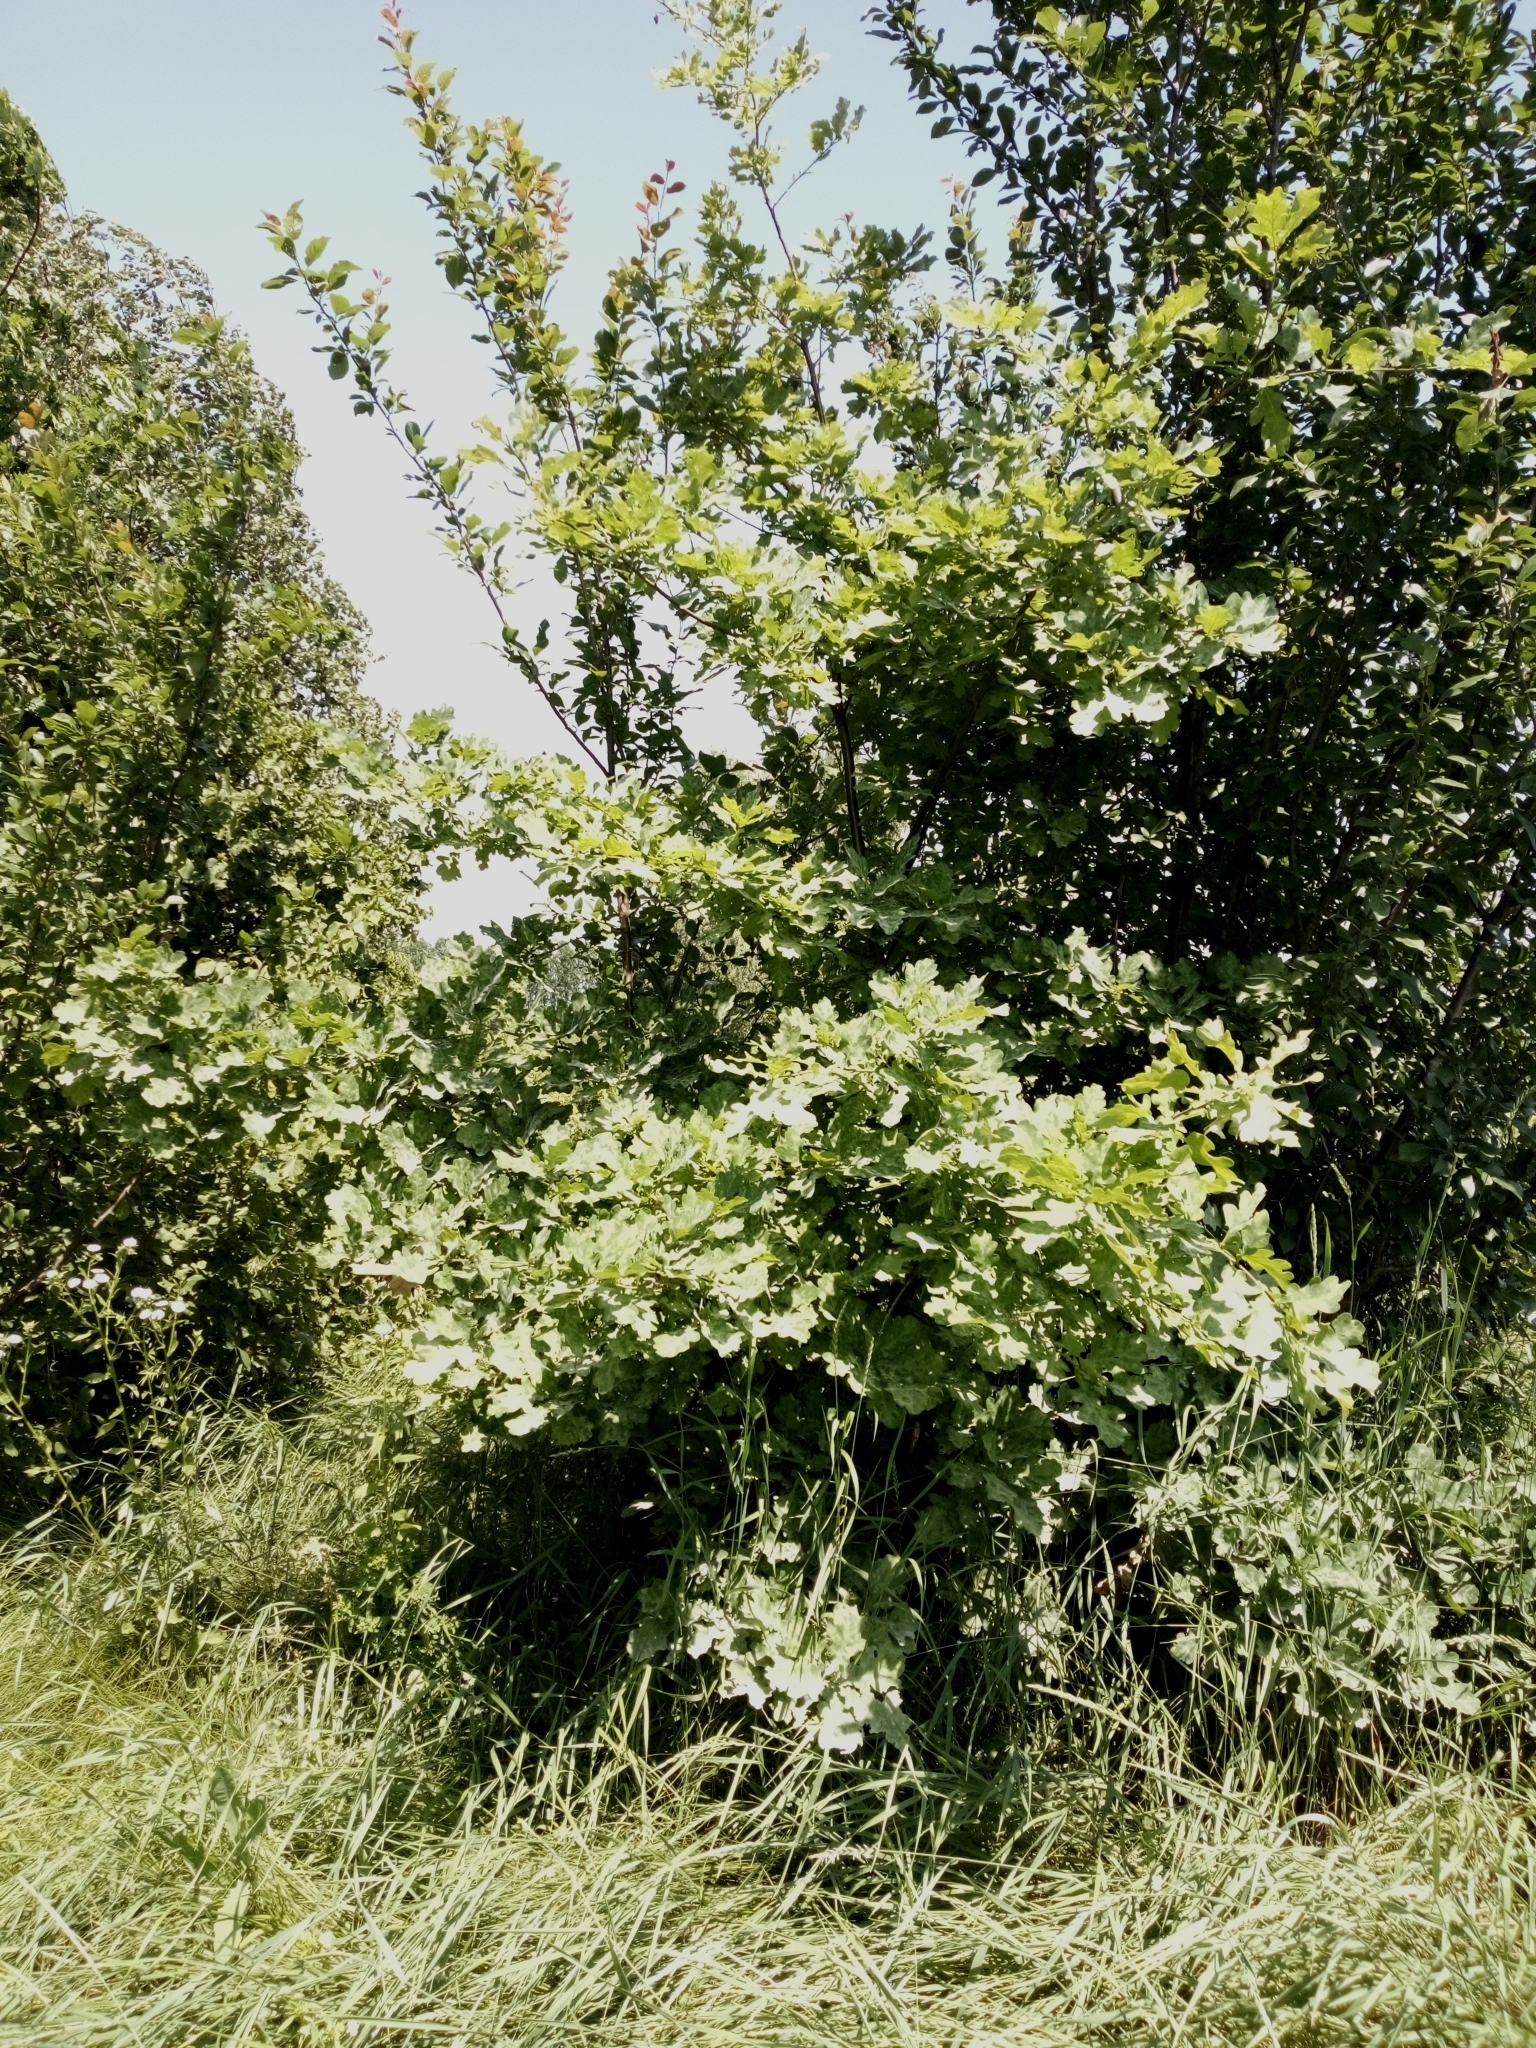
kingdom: Plantae
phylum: Tracheophyta
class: Magnoliopsida
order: Fagales
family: Fagaceae
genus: Quercus
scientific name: Quercus robur
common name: Pedunculate oak
